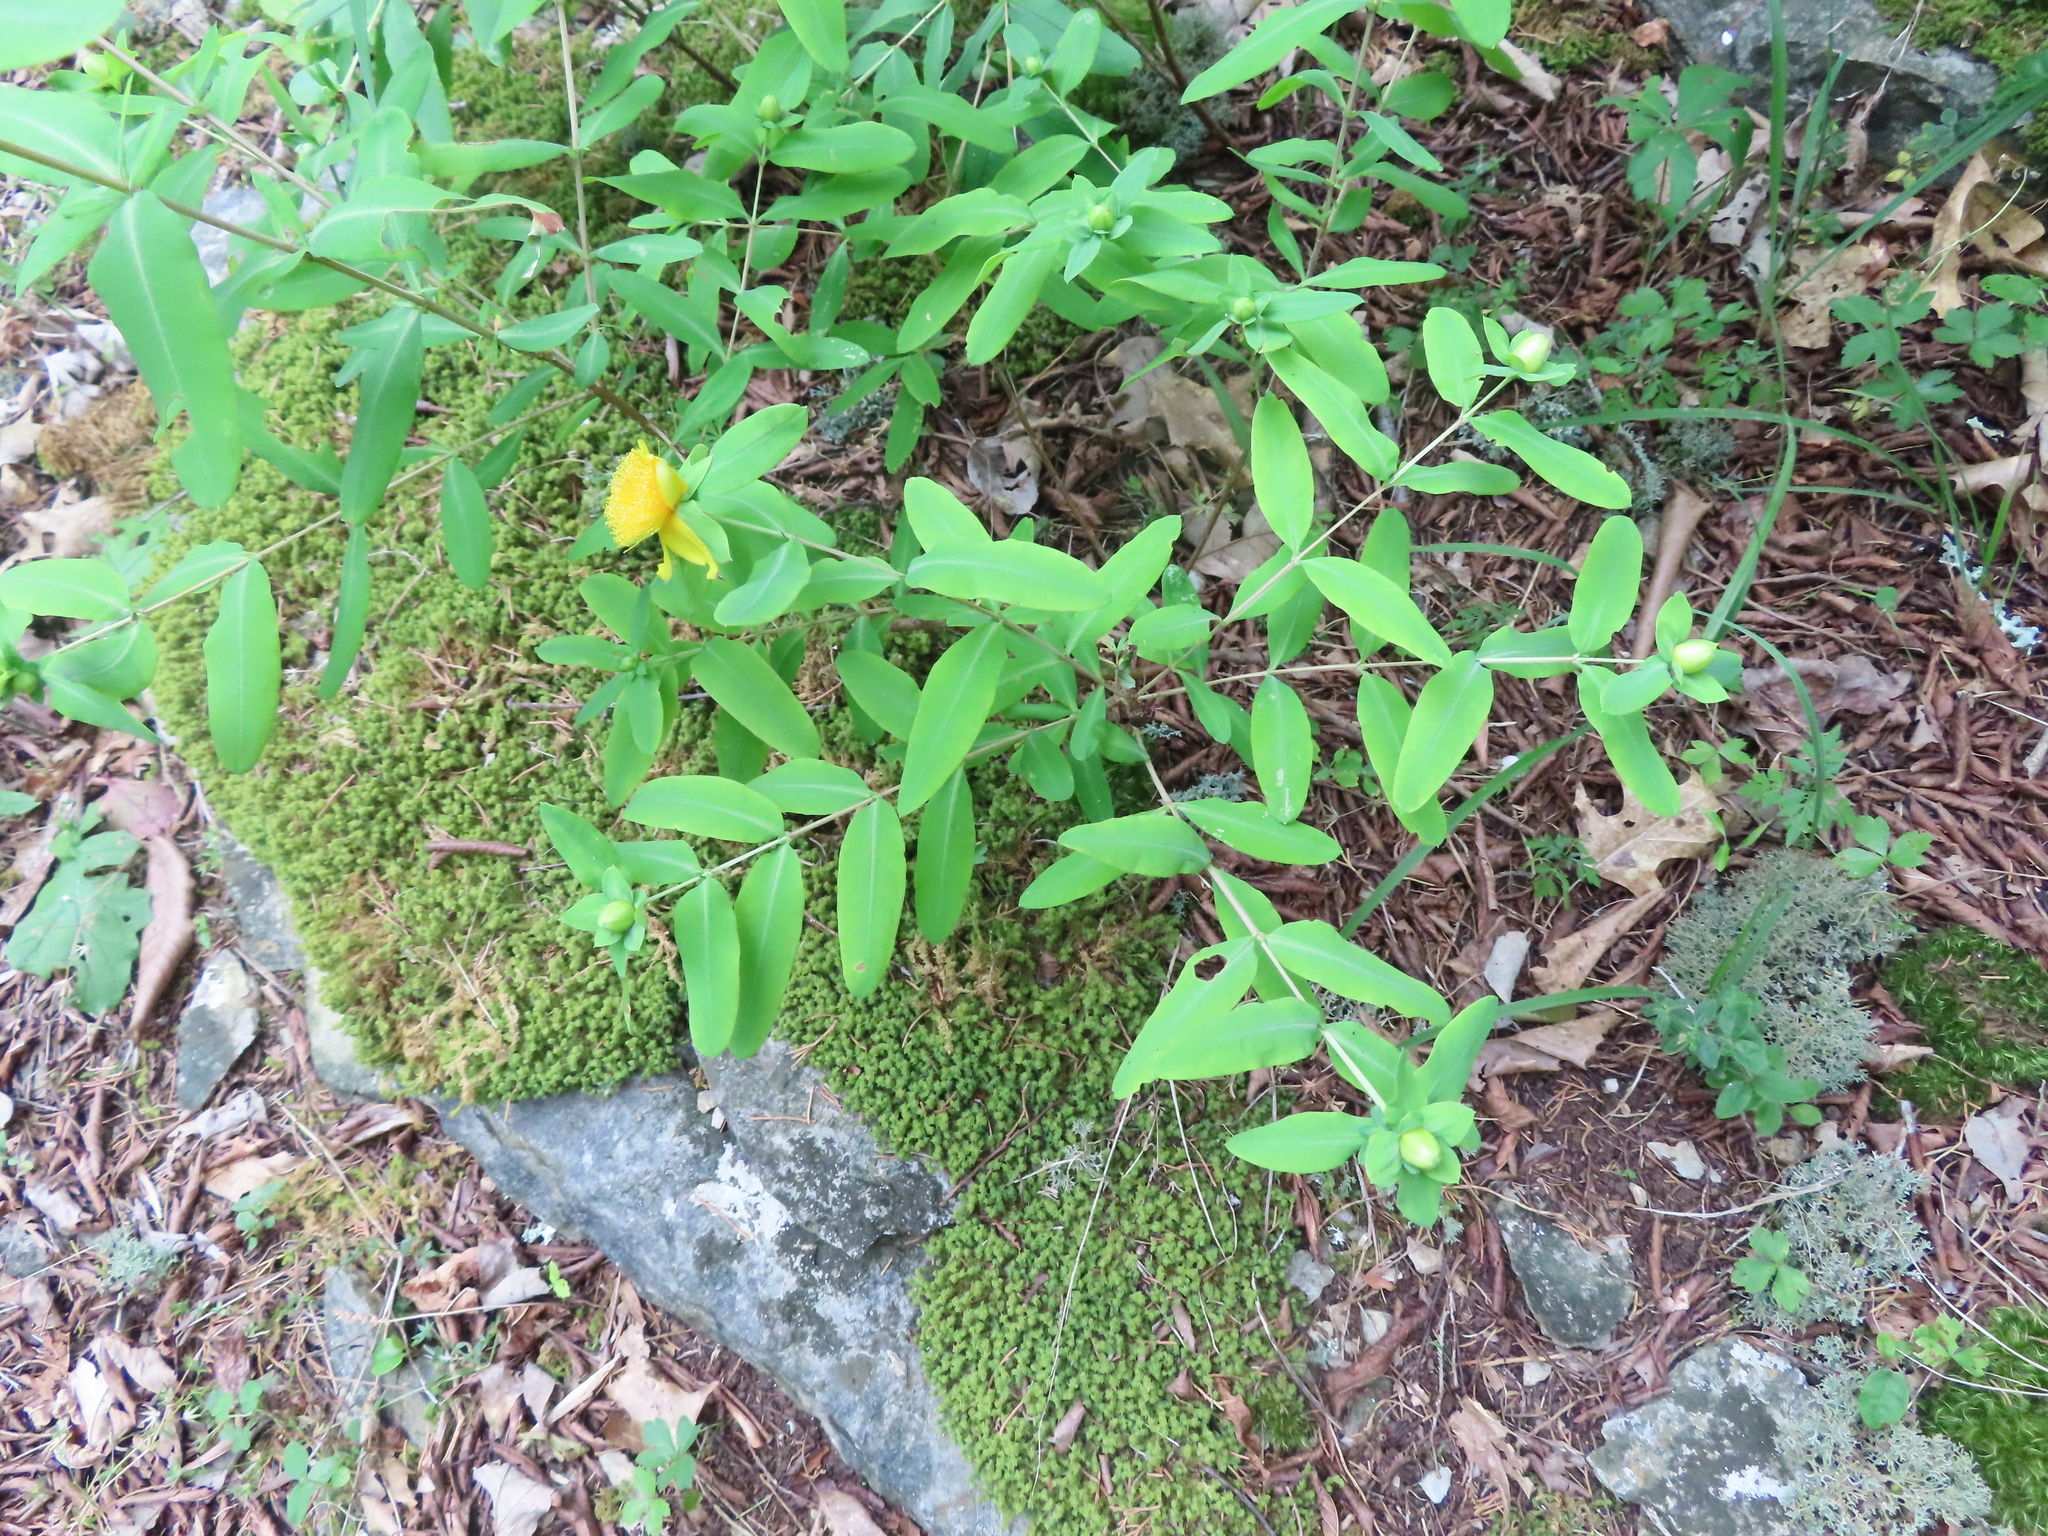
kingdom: Plantae
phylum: Tracheophyta
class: Magnoliopsida
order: Malpighiales
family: Hypericaceae
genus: Hypericum
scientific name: Hypericum frondosum
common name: Golden st. john's-wort
